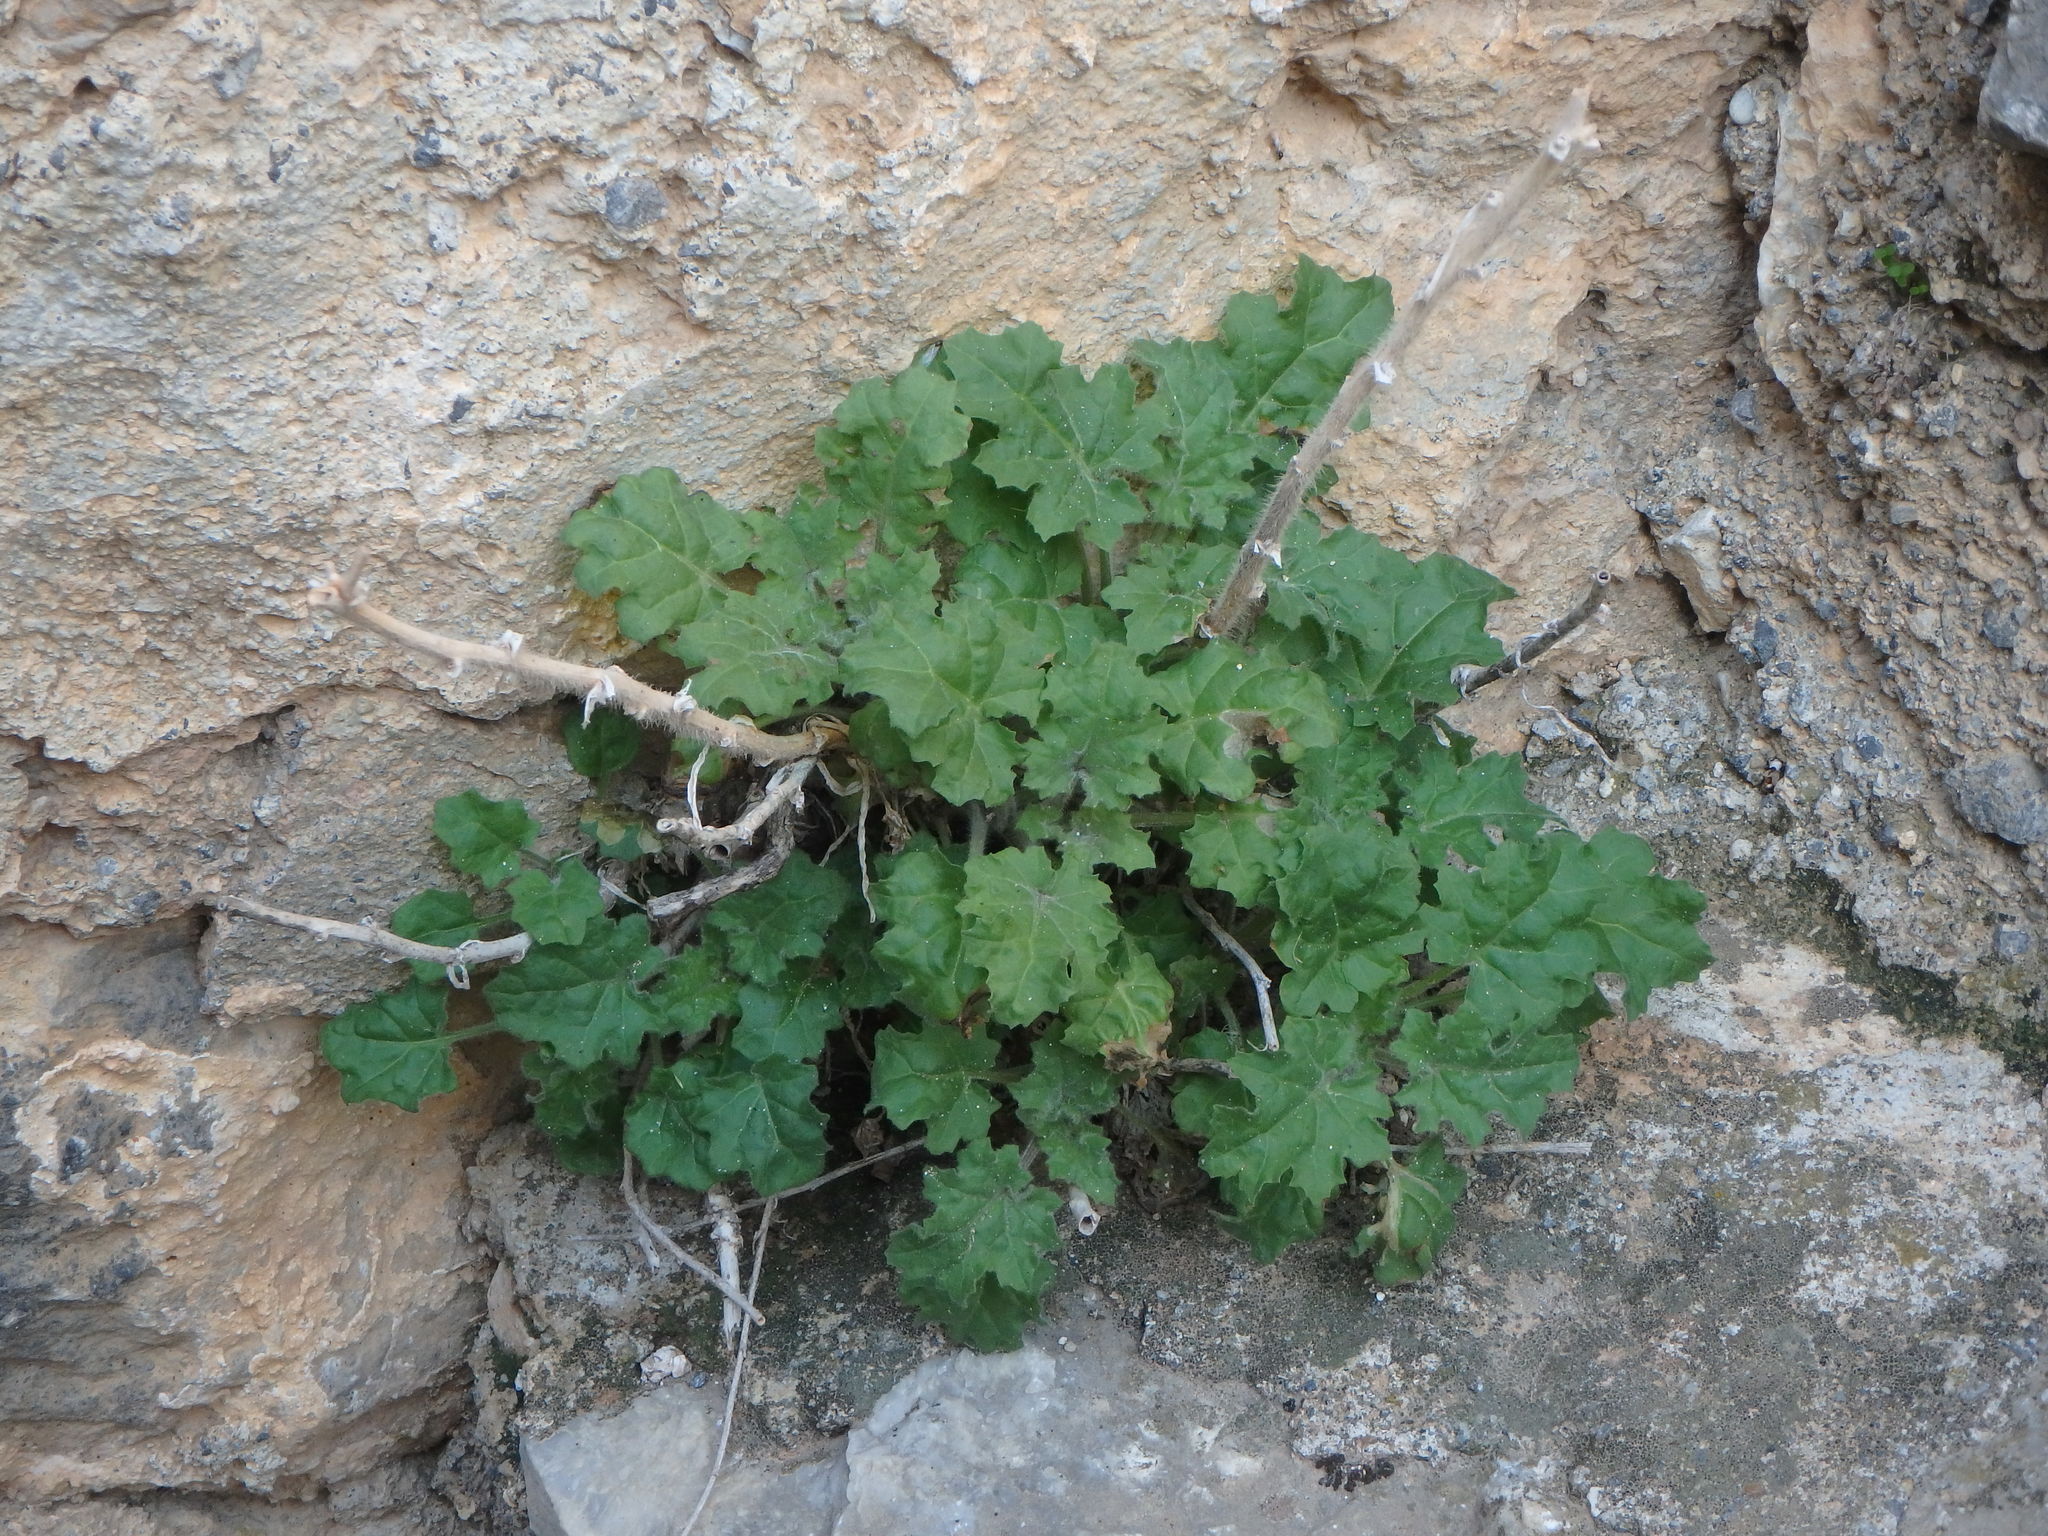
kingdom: Plantae
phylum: Tracheophyta
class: Magnoliopsida
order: Solanales
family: Solanaceae
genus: Hyoscyamus
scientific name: Hyoscyamus aureus
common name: Golden henbane
